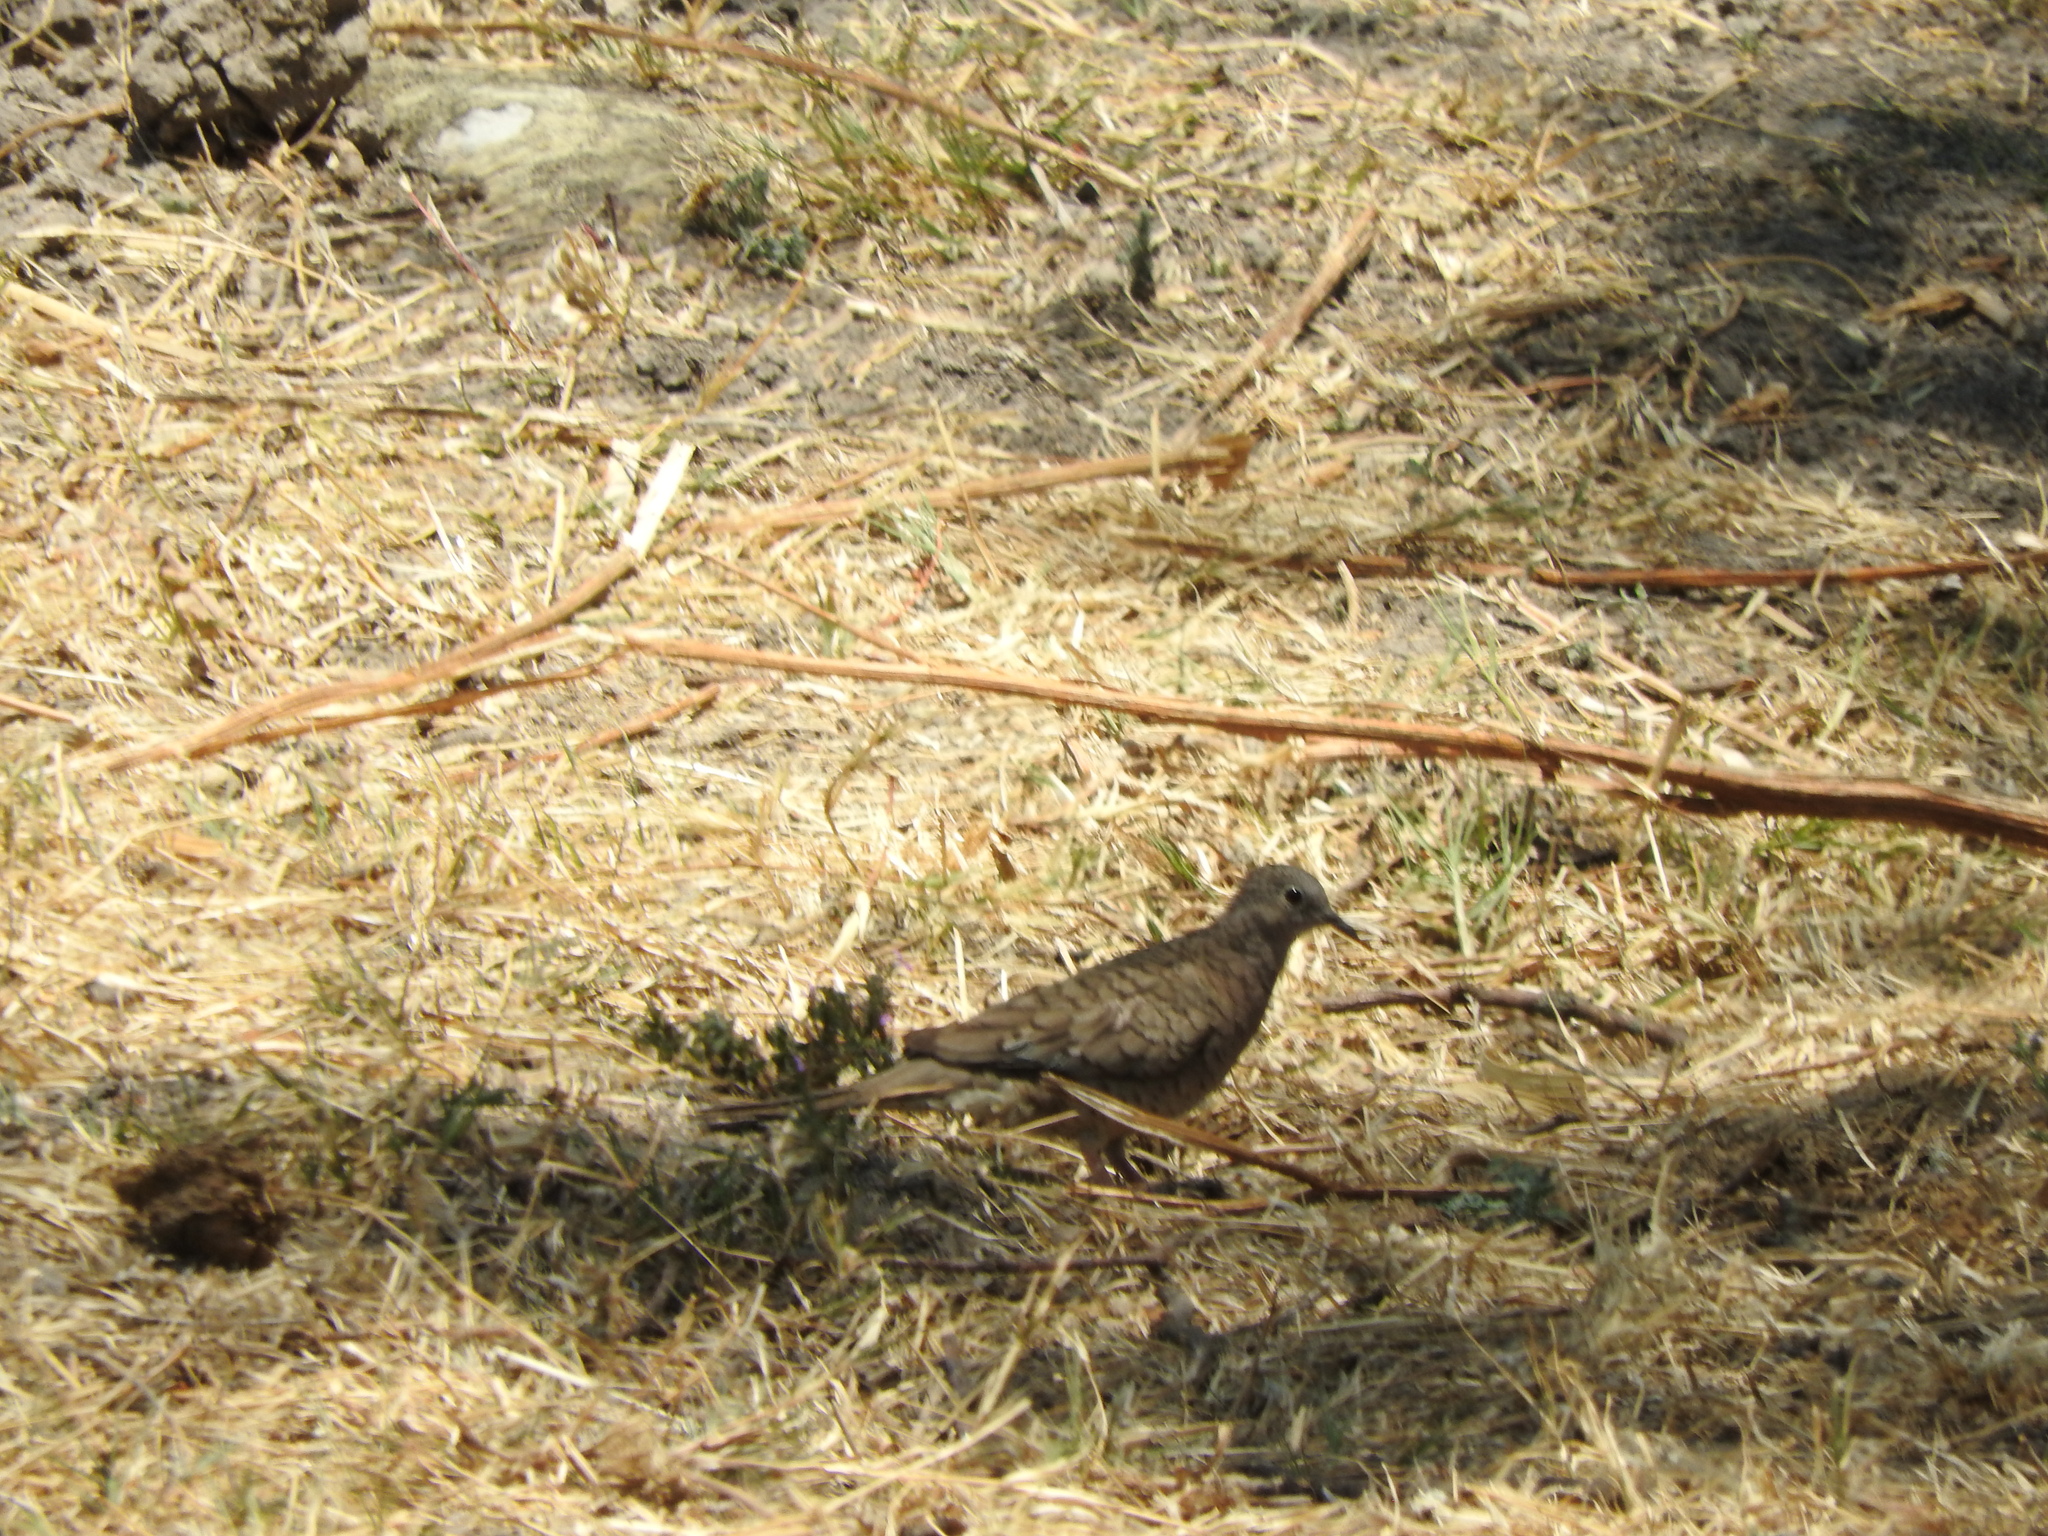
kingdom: Animalia
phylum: Chordata
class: Aves
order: Columbiformes
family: Columbidae
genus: Columbina
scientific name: Columbina inca
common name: Inca dove
